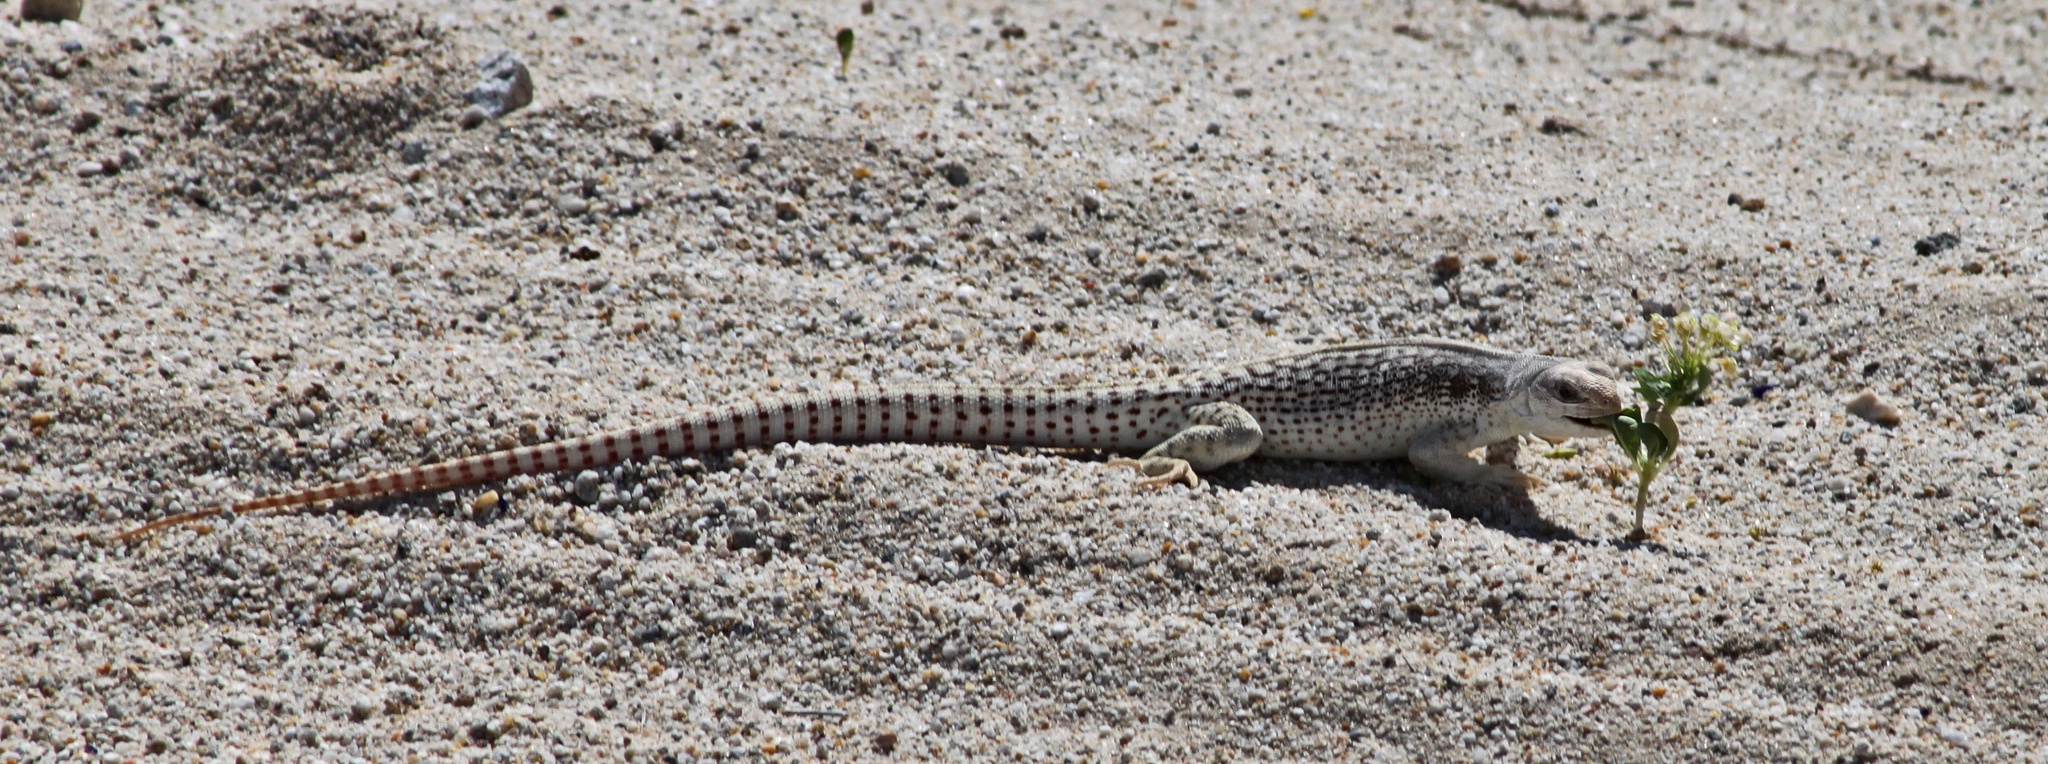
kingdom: Animalia
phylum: Chordata
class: Squamata
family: Iguanidae
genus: Dipsosaurus
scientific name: Dipsosaurus dorsalis
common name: Desert iguana
